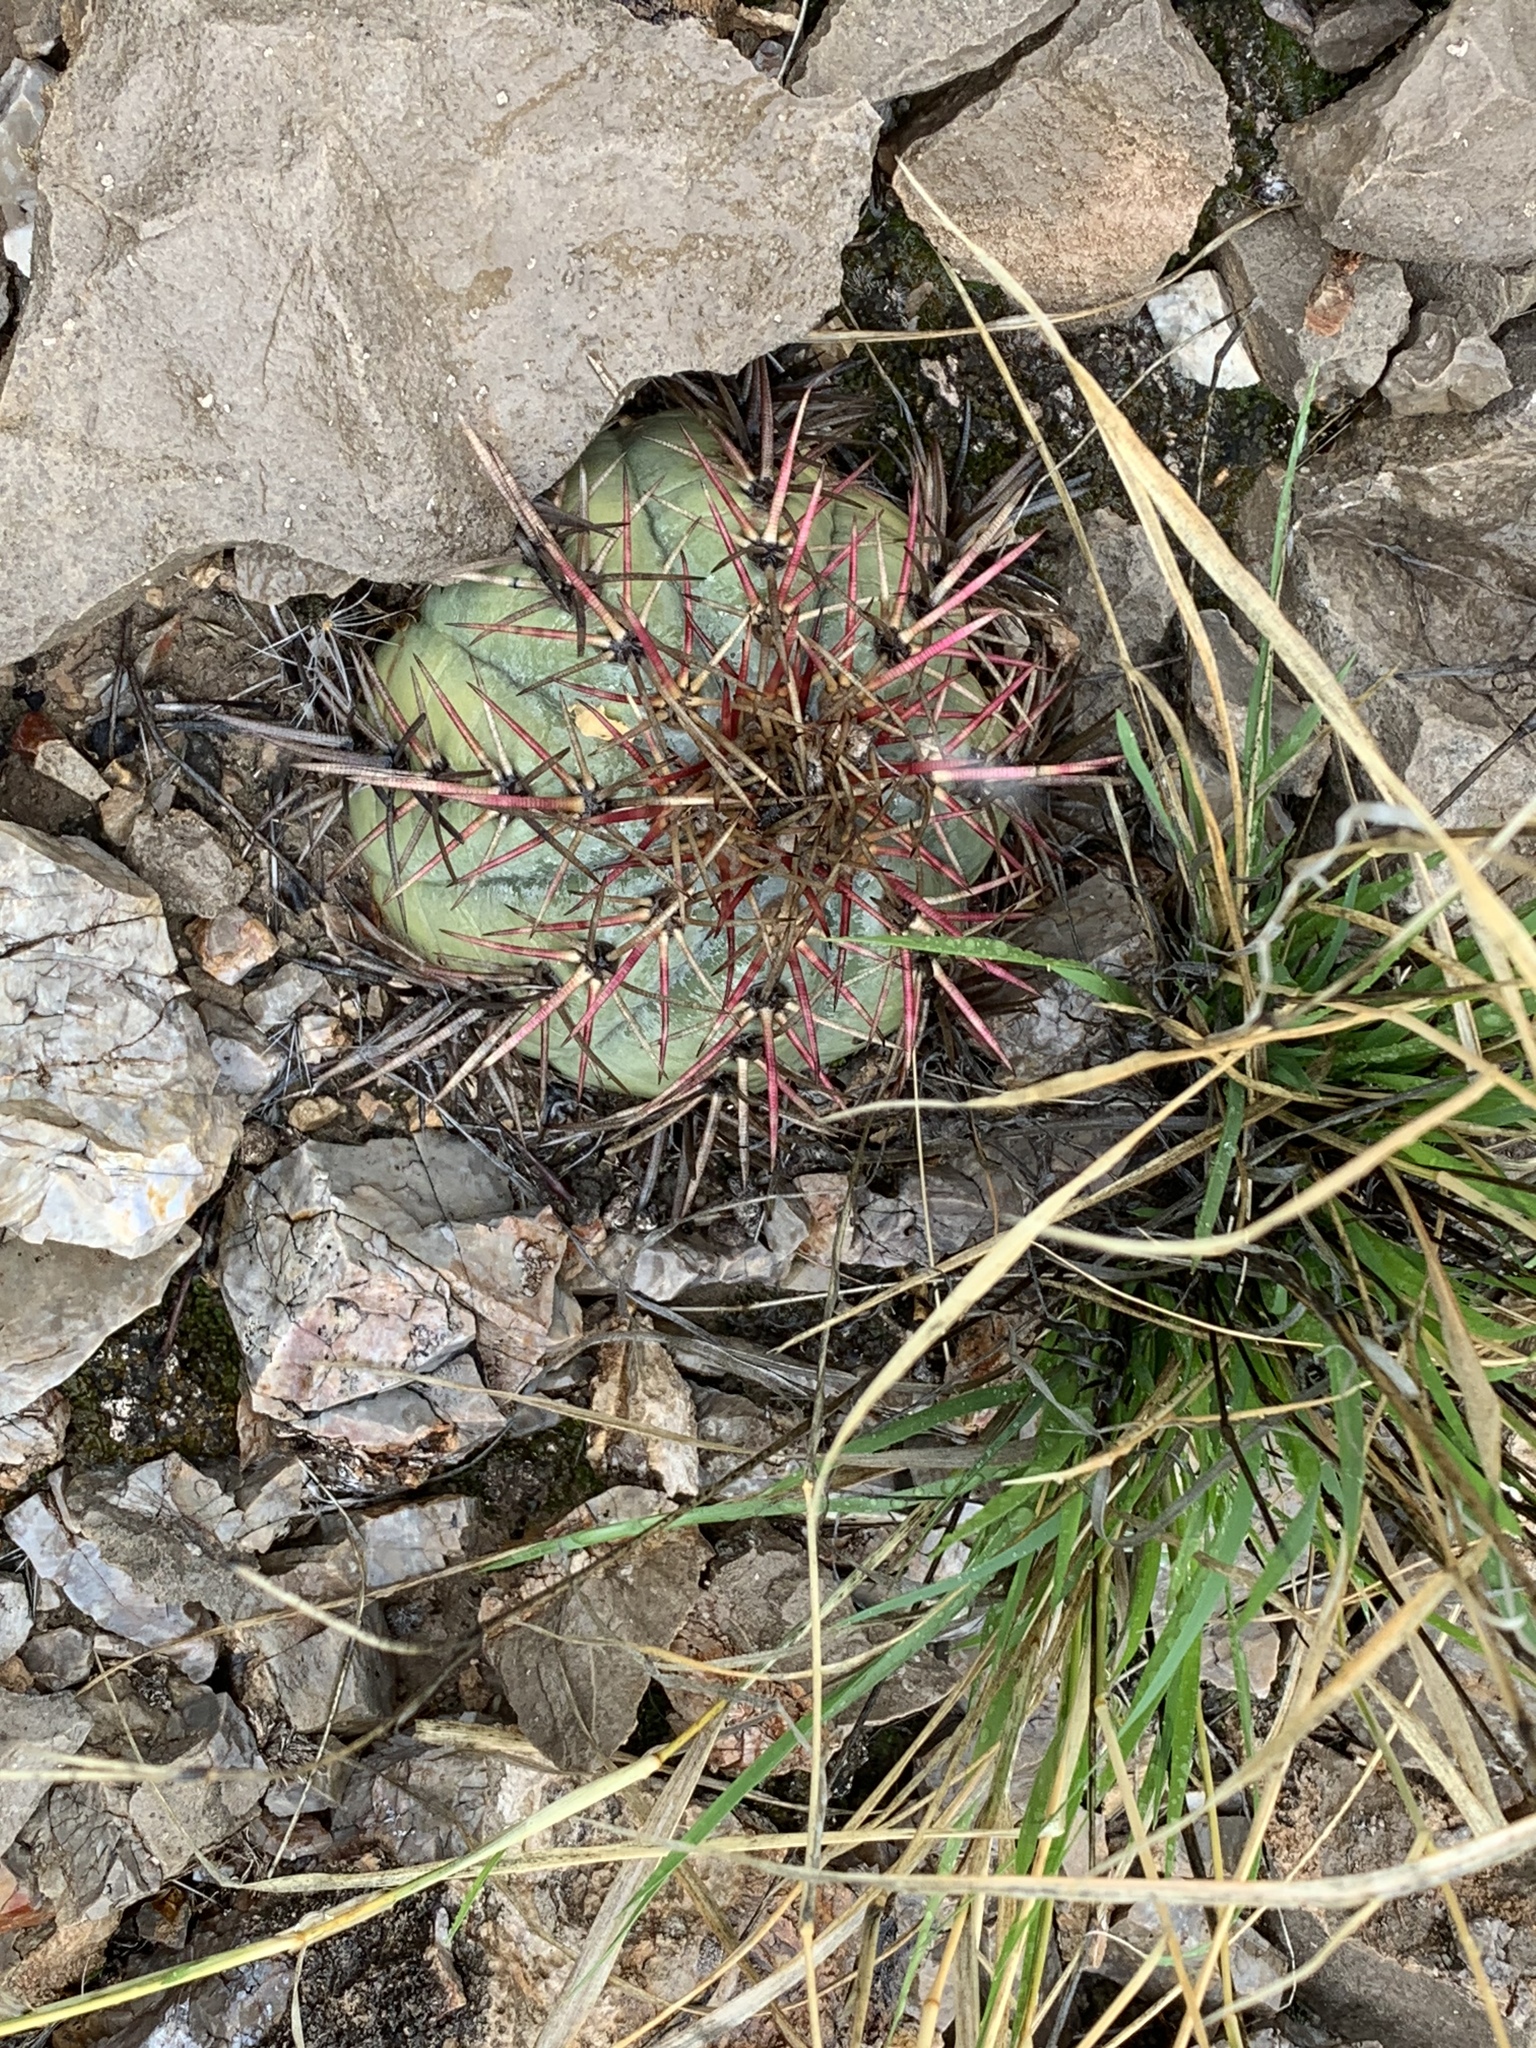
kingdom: Plantae
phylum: Tracheophyta
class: Magnoliopsida
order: Caryophyllales
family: Cactaceae
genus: Echinocactus
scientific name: Echinocactus horizonthalonius
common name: Devilshead
